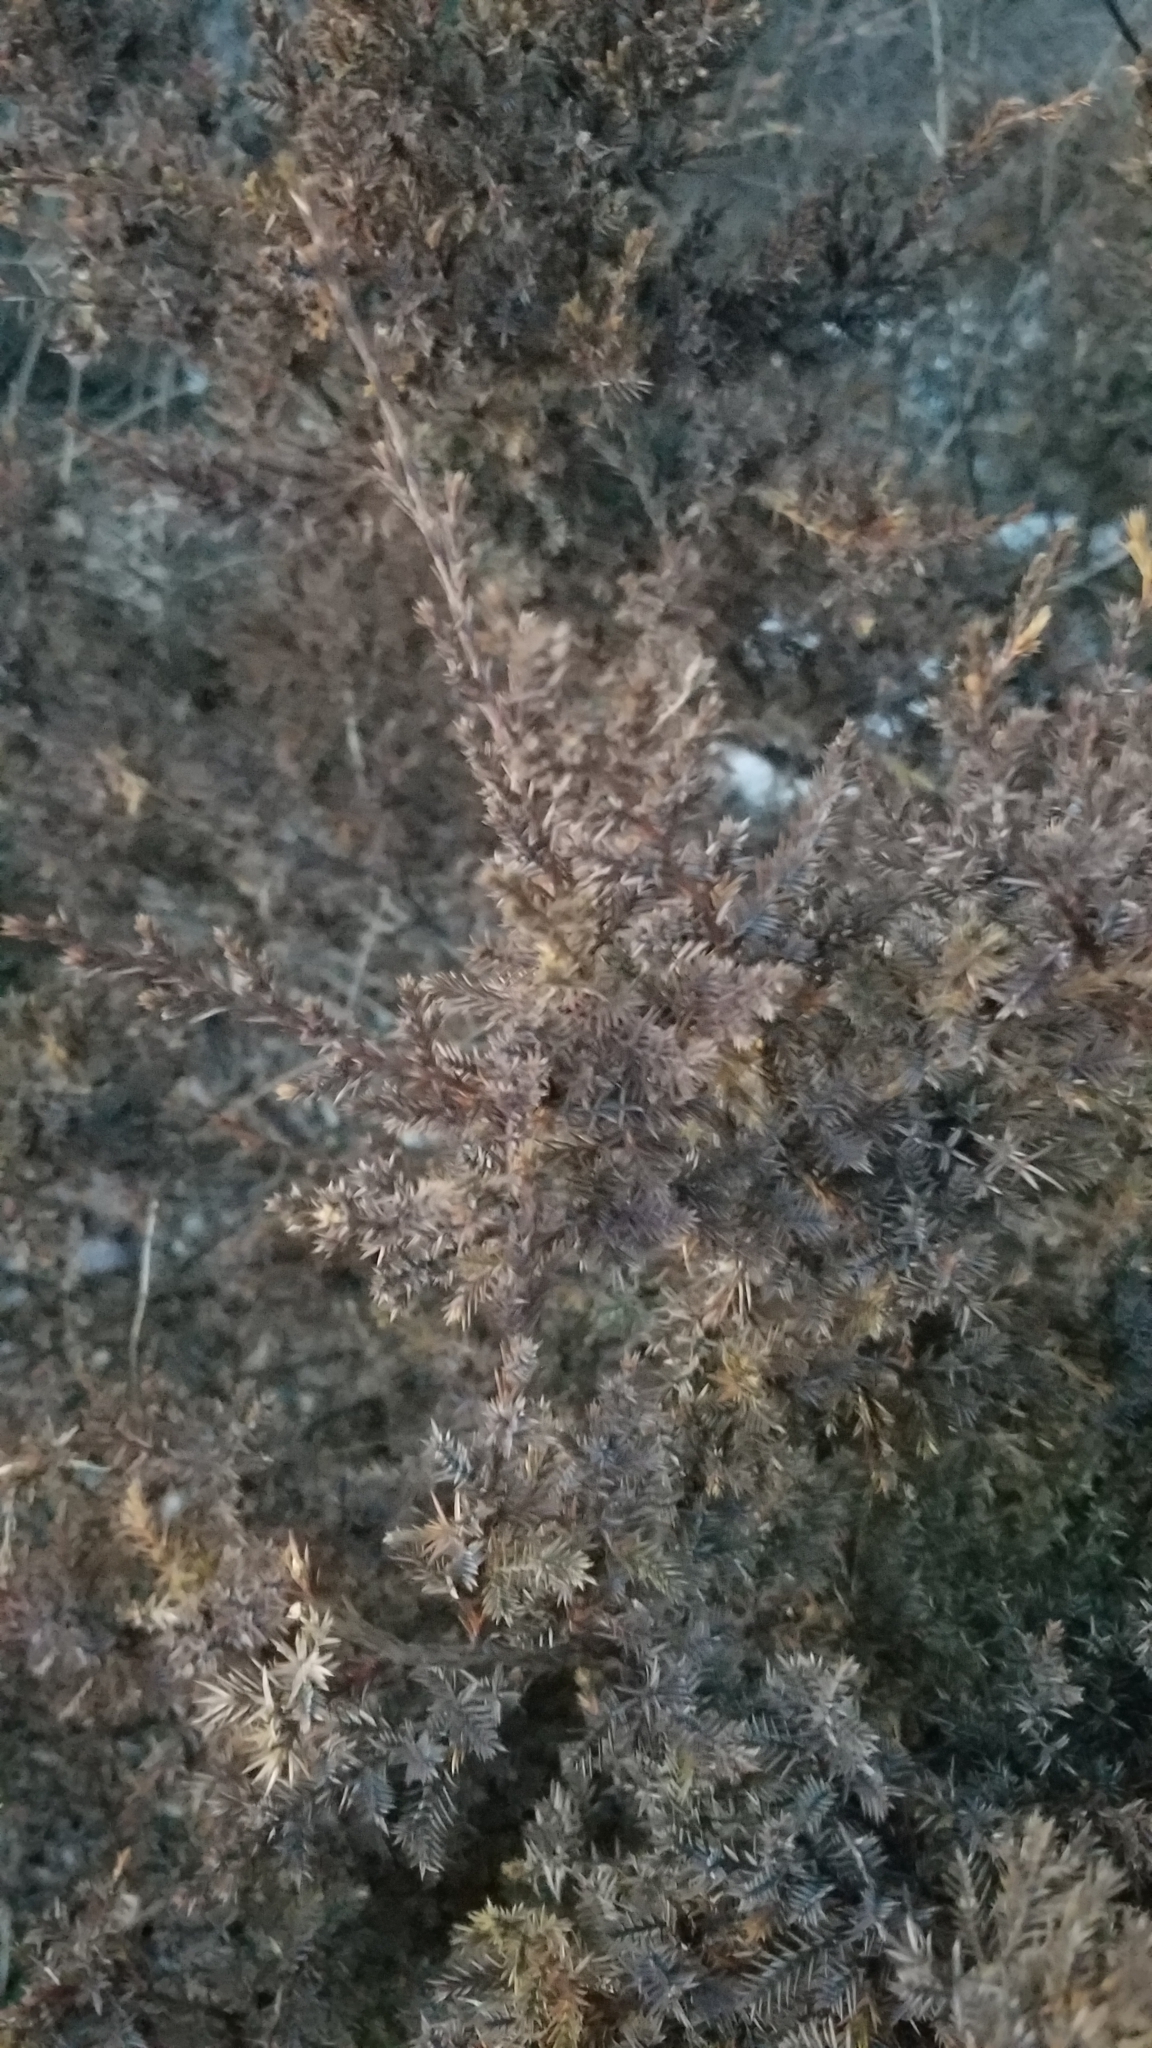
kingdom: Plantae
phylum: Tracheophyta
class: Pinopsida
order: Pinales
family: Cupressaceae
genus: Juniperus
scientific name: Juniperus virginiana
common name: Red juniper
